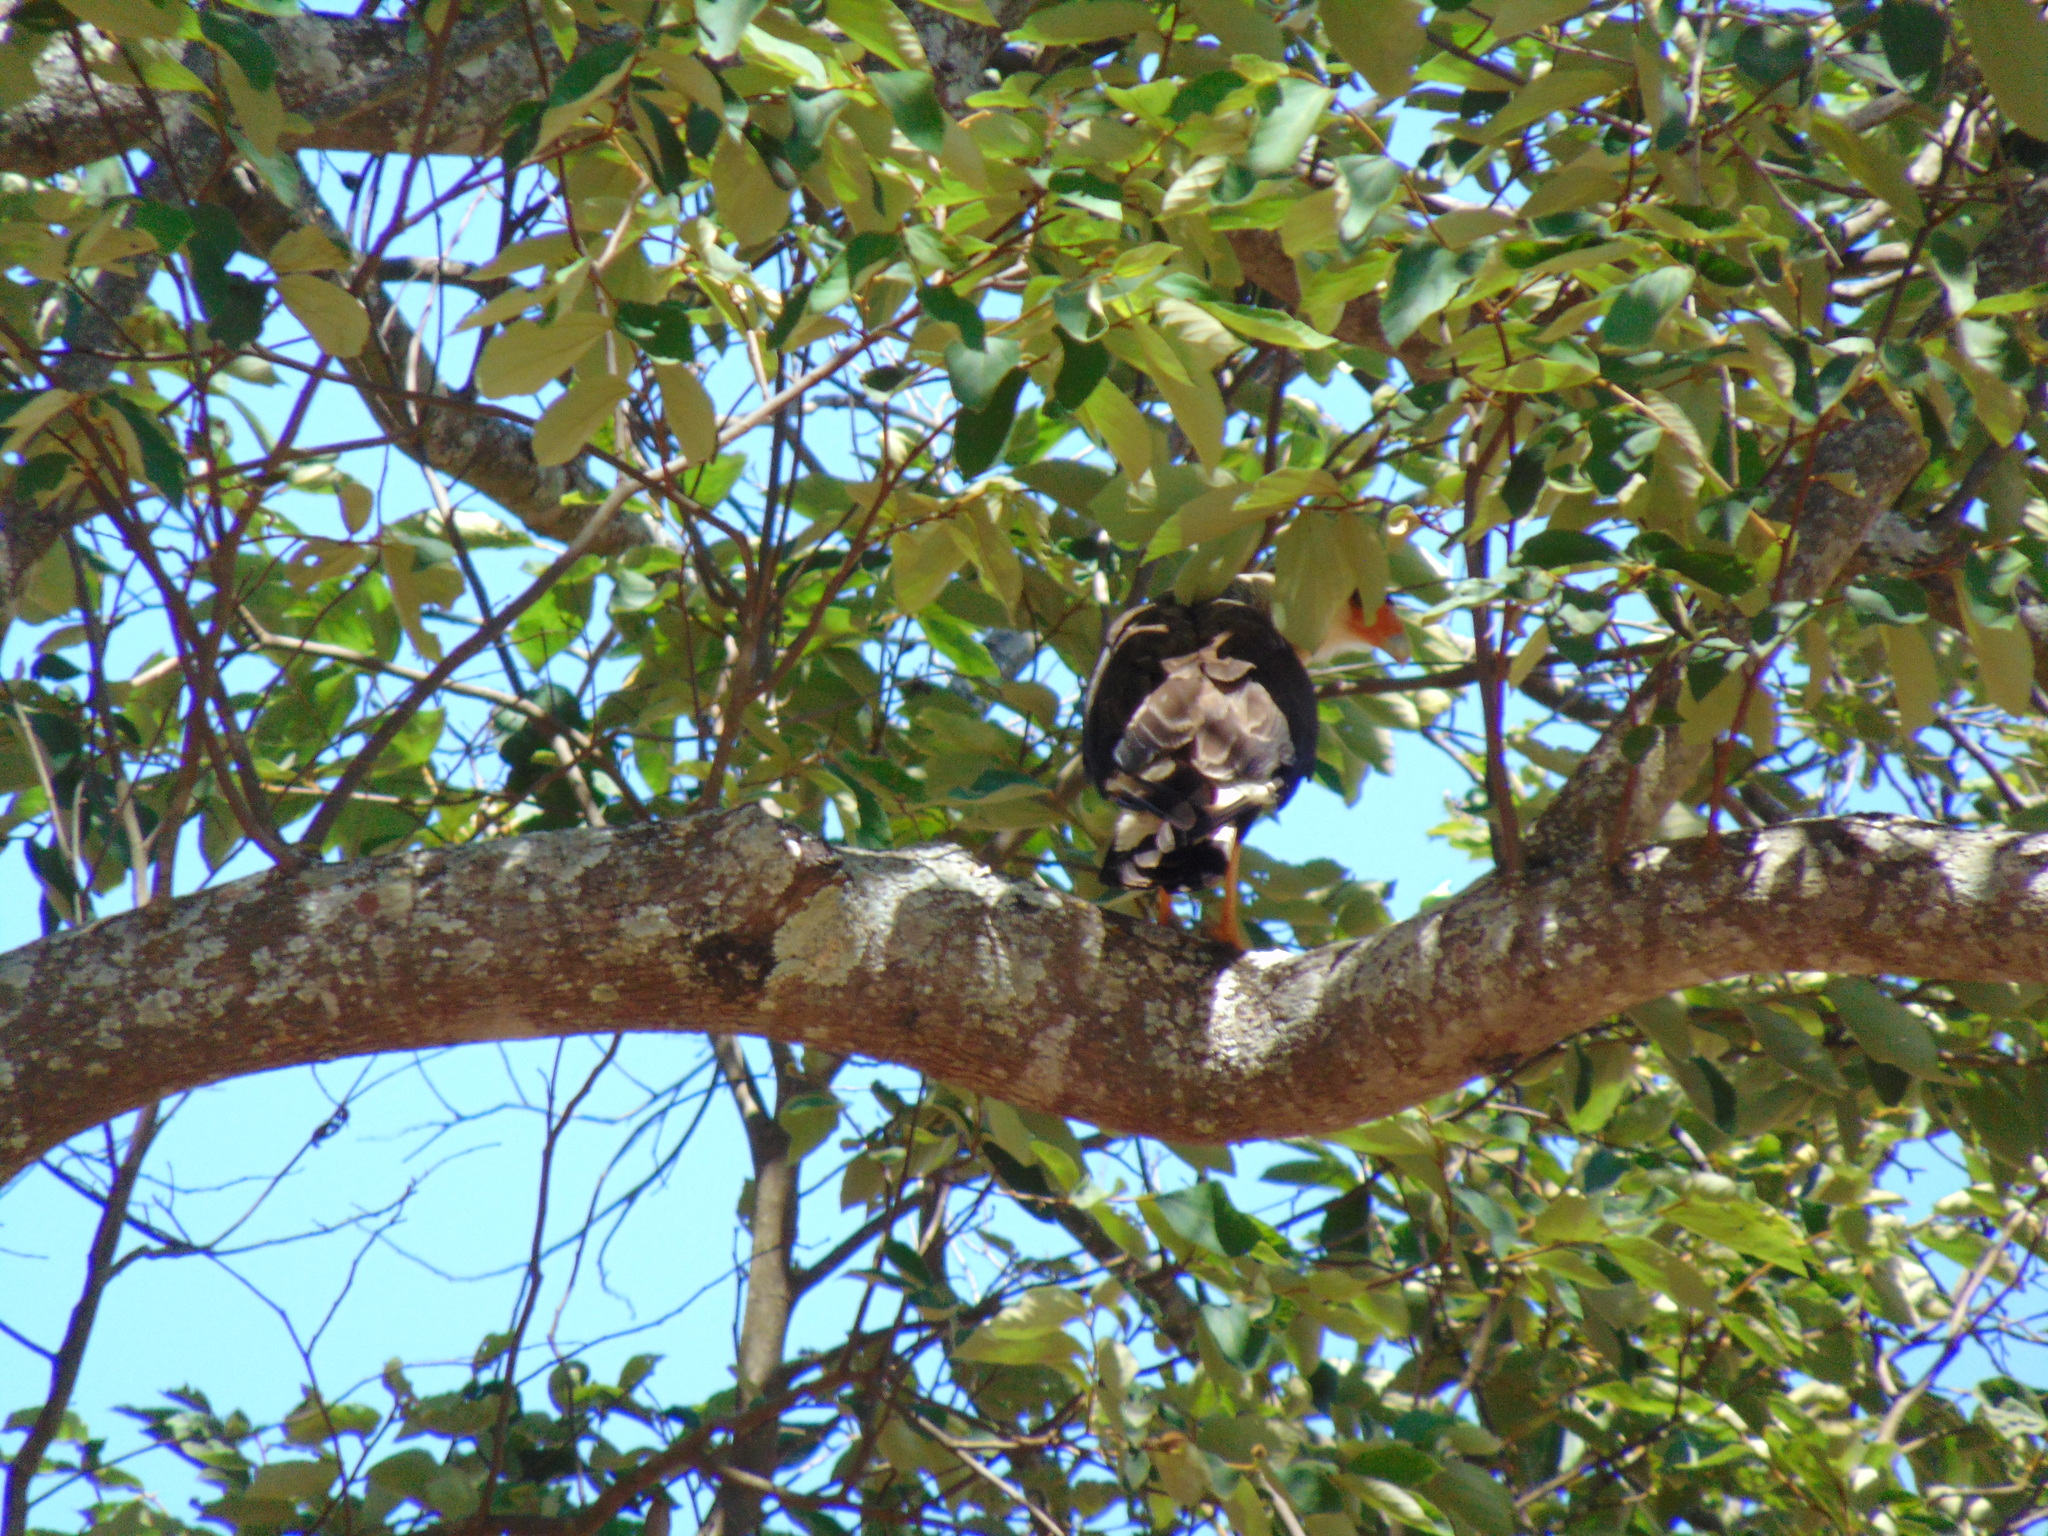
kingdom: Animalia
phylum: Chordata
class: Aves
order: Falconiformes
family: Falconidae
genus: Caracara
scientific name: Caracara plancus
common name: Southern caracara
